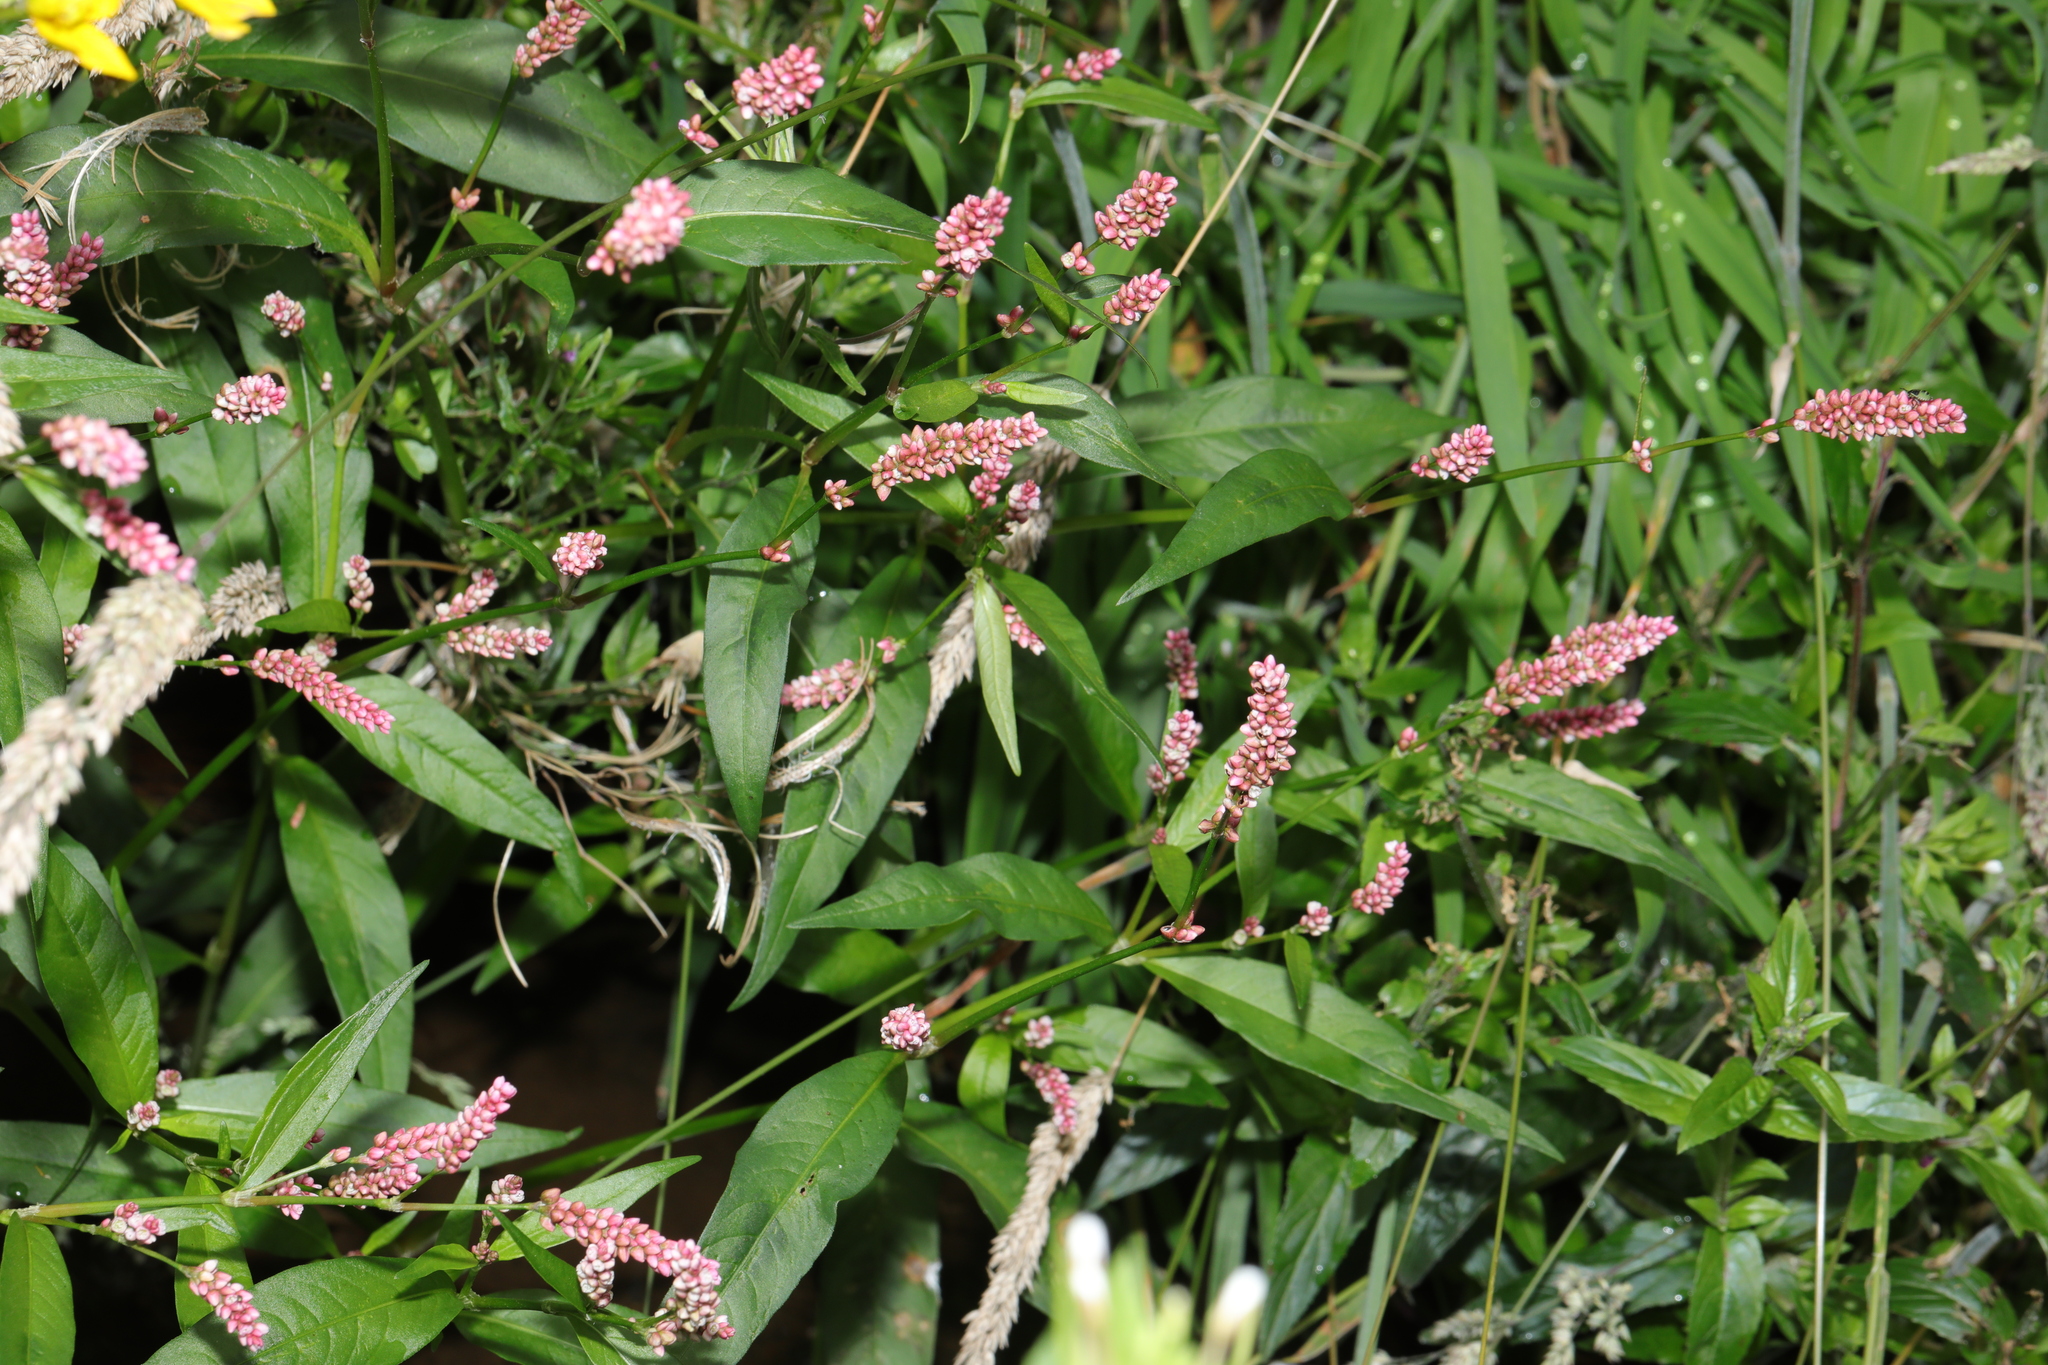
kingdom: Plantae
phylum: Tracheophyta
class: Magnoliopsida
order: Caryophyllales
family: Polygonaceae
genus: Persicaria
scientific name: Persicaria maculosa
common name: Redshank
